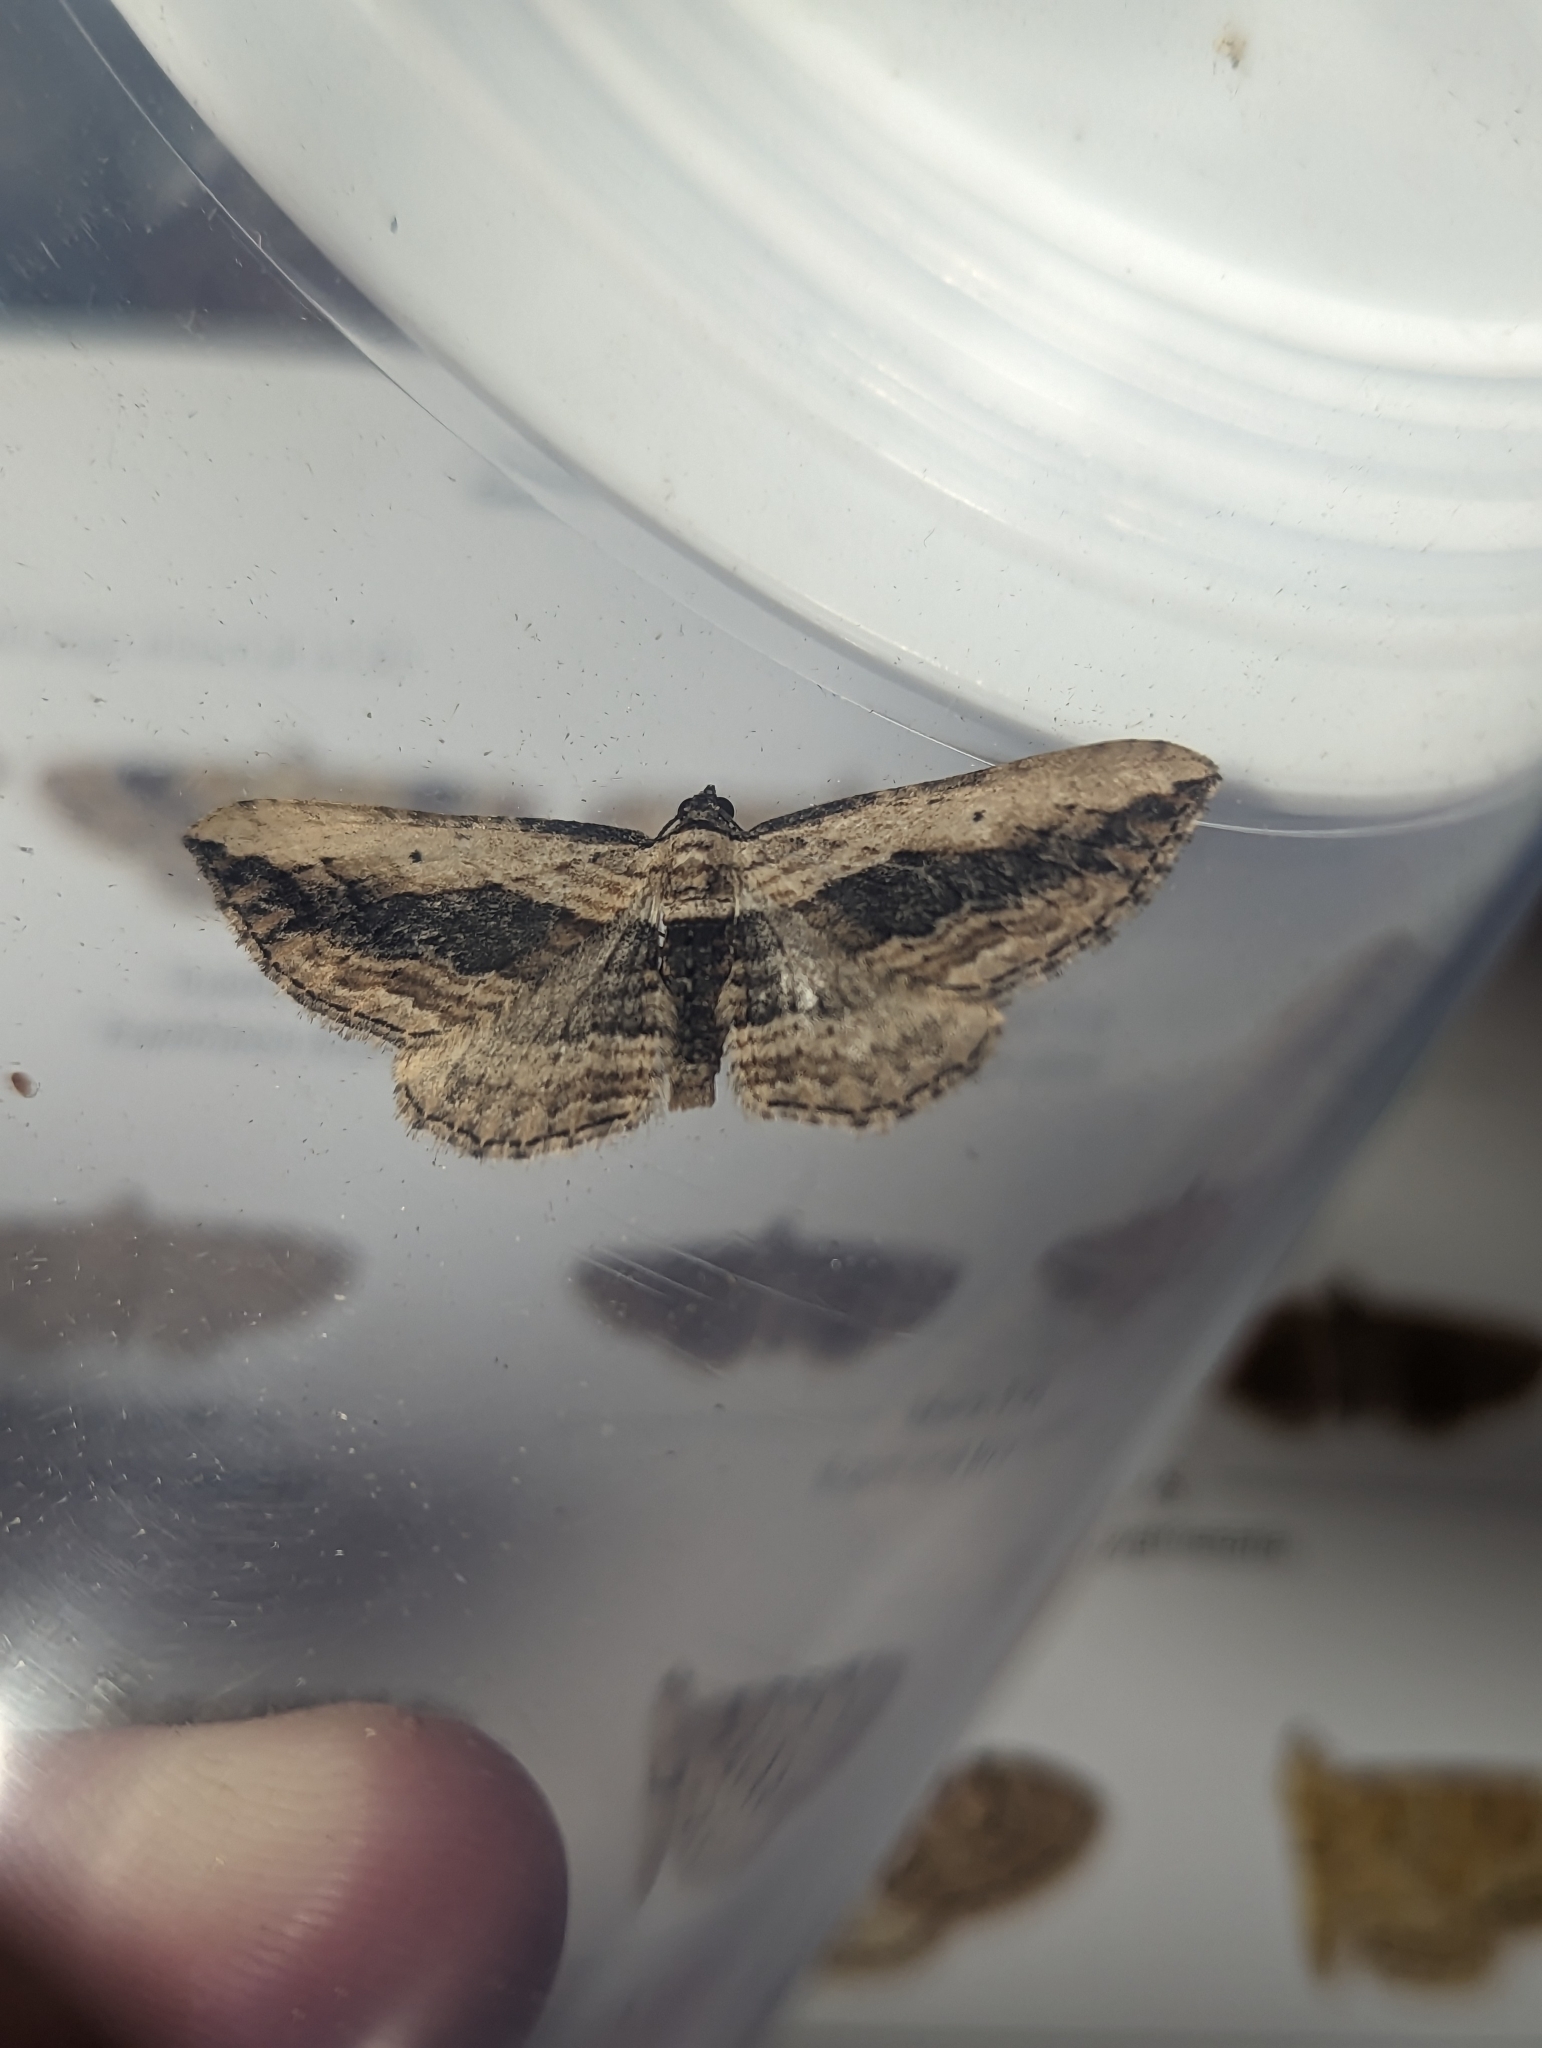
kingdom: Animalia
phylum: Arthropoda
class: Insecta
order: Lepidoptera
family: Geometridae
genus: Horisme
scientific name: Horisme vitalbata
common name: Small waved umber
